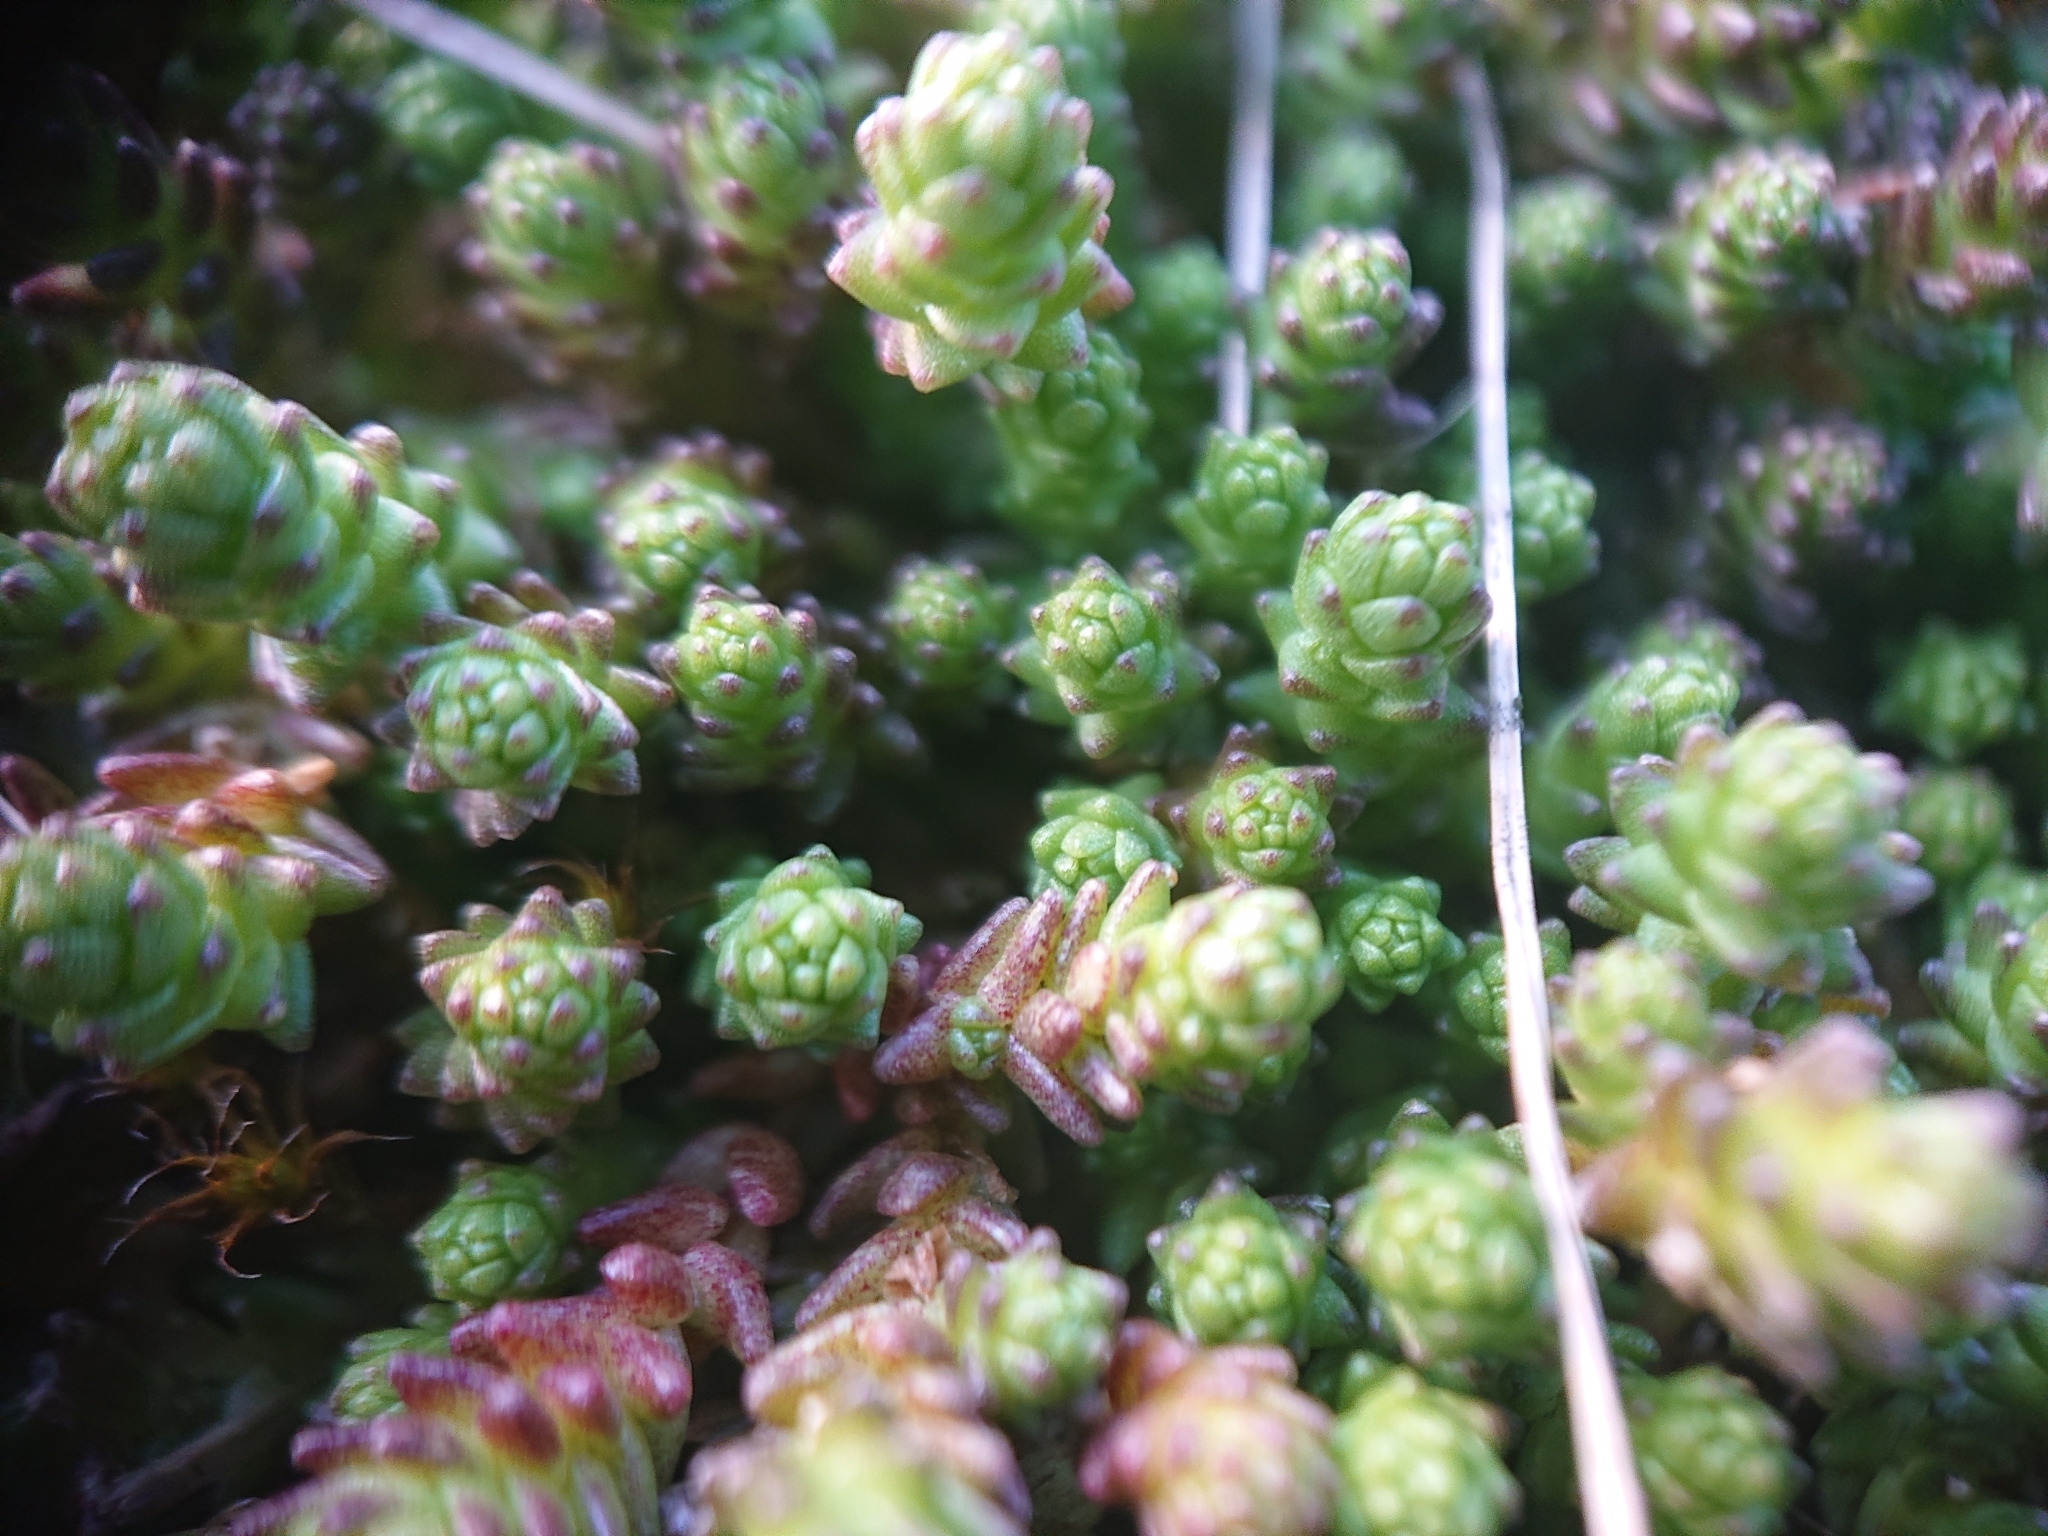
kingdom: Plantae
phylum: Tracheophyta
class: Magnoliopsida
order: Saxifragales
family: Crassulaceae
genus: Sedum
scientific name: Sedum acre
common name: Biting stonecrop
